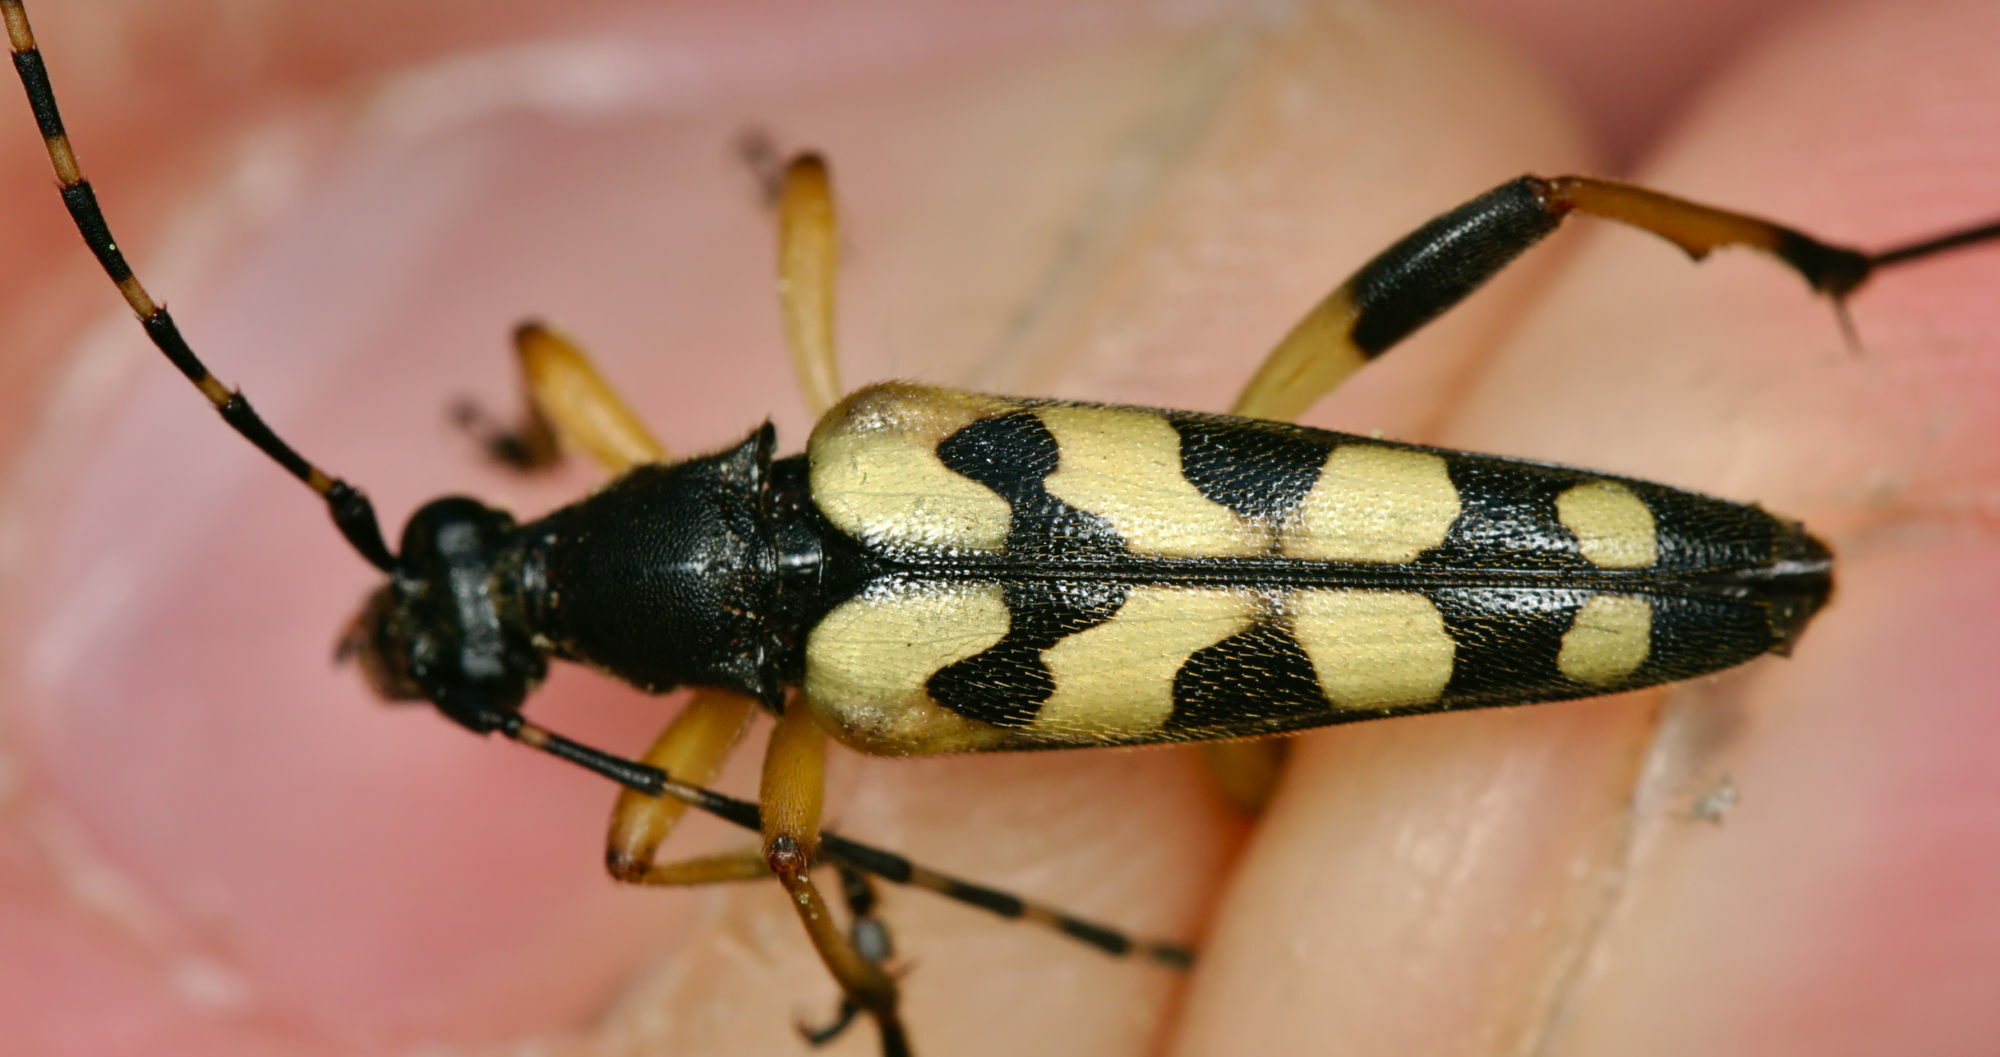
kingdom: Animalia
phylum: Arthropoda
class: Insecta
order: Coleoptera
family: Cerambycidae
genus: Rutpela
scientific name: Rutpela maculata
